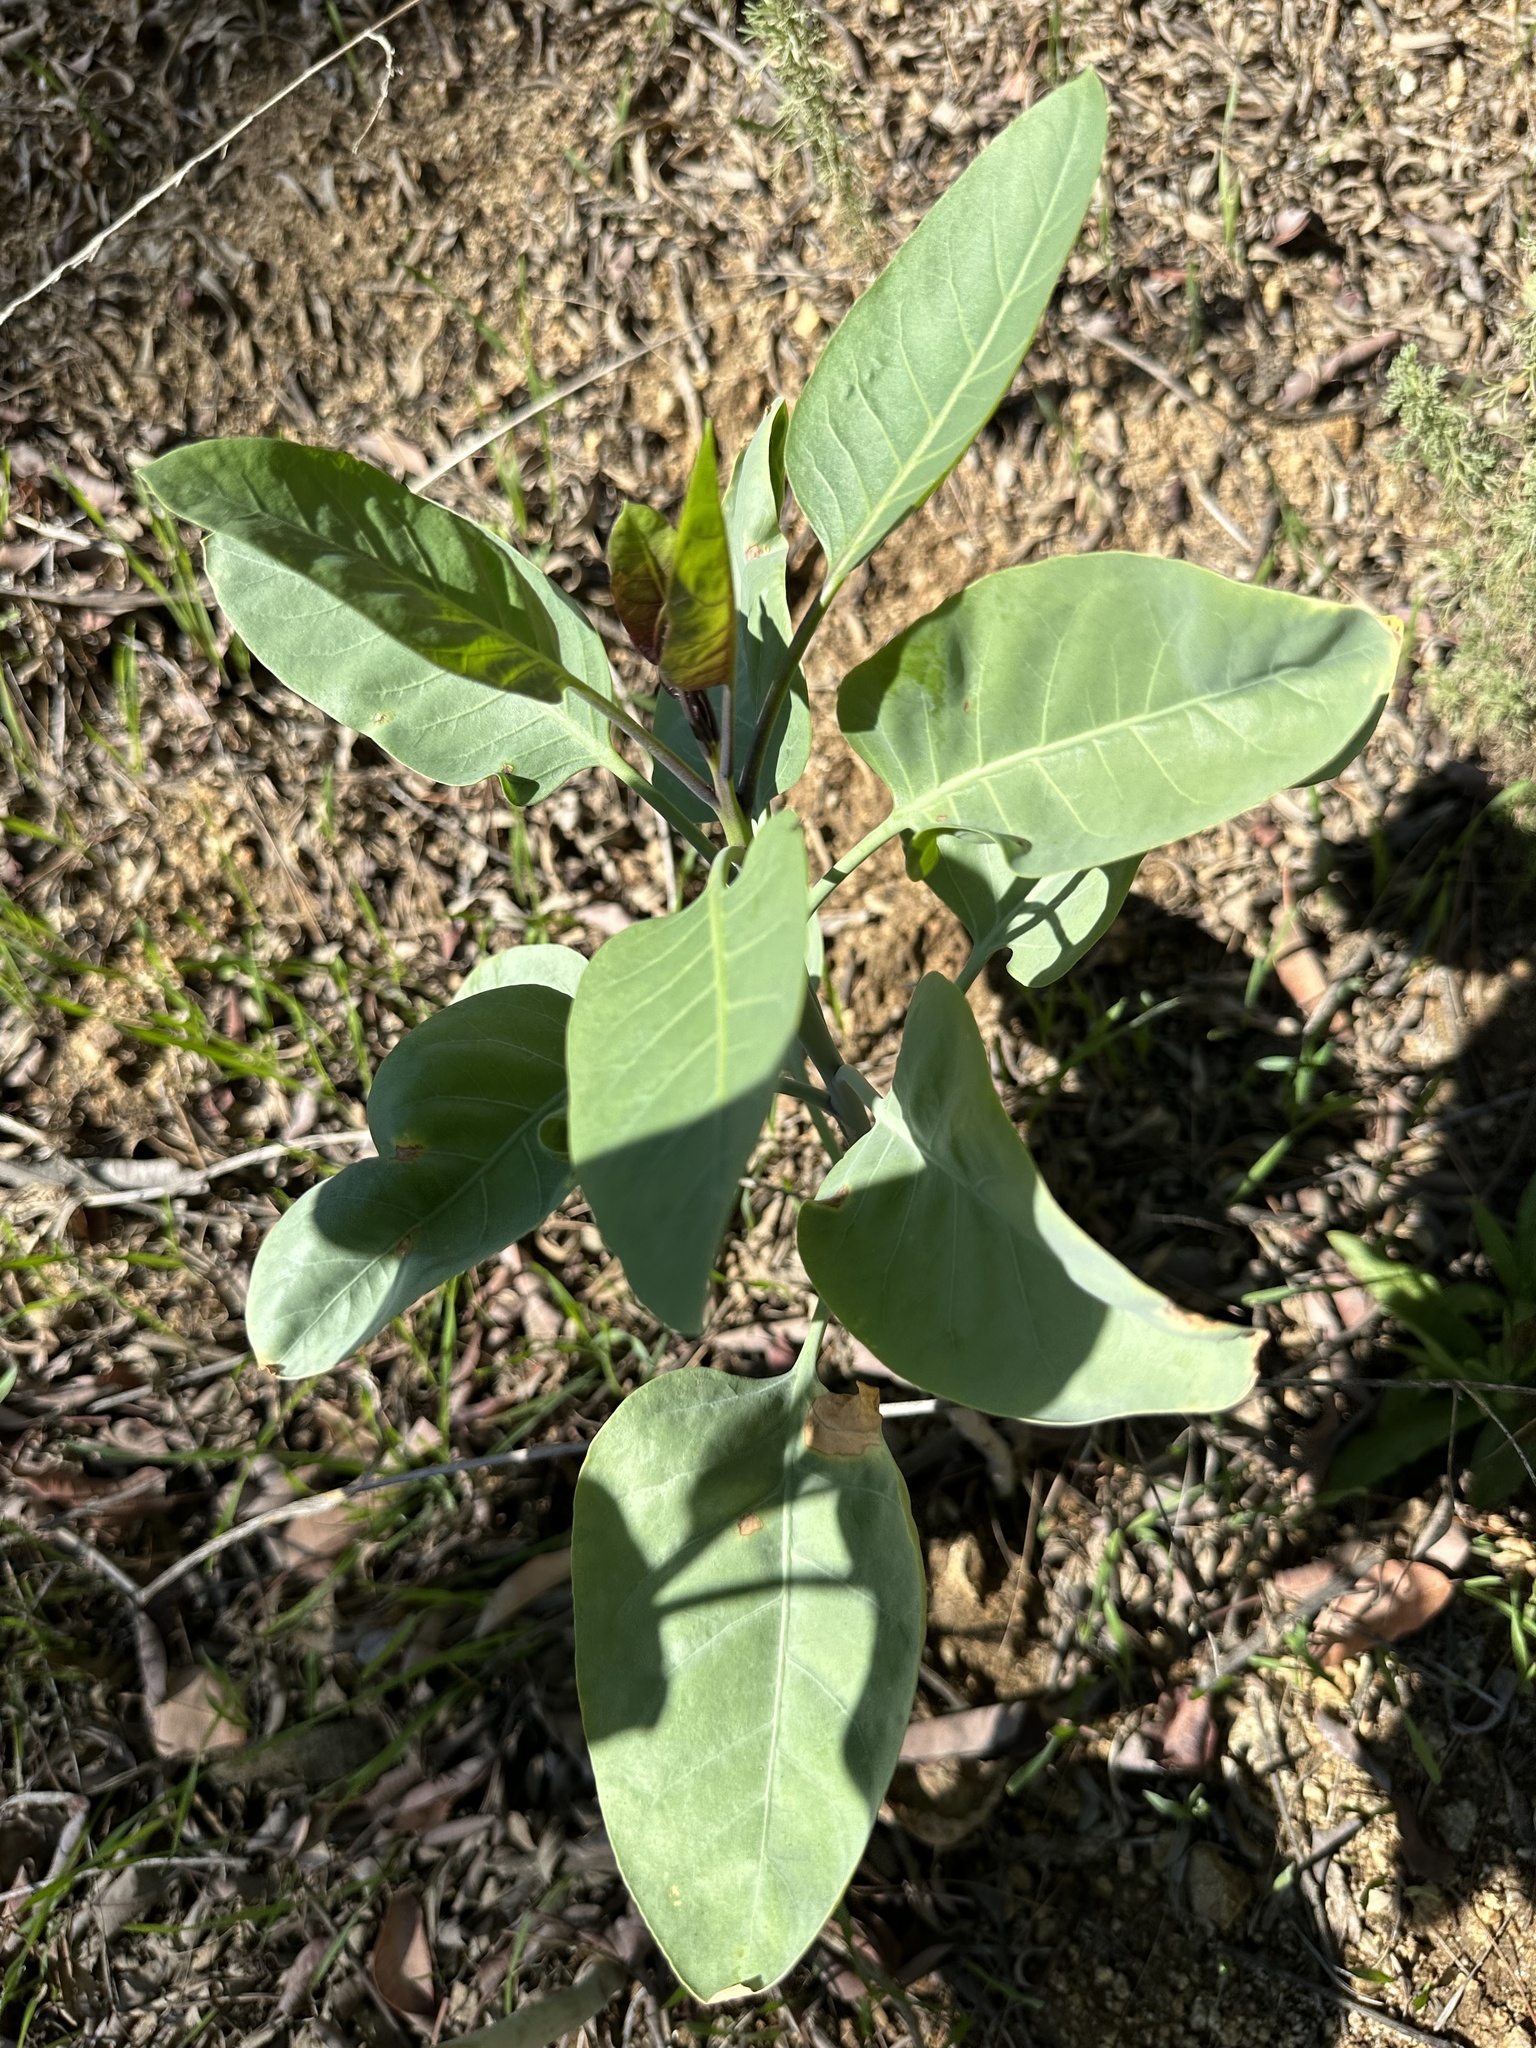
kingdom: Plantae
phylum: Tracheophyta
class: Magnoliopsida
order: Solanales
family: Solanaceae
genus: Nicotiana
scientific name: Nicotiana glauca
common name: Tree tobacco
